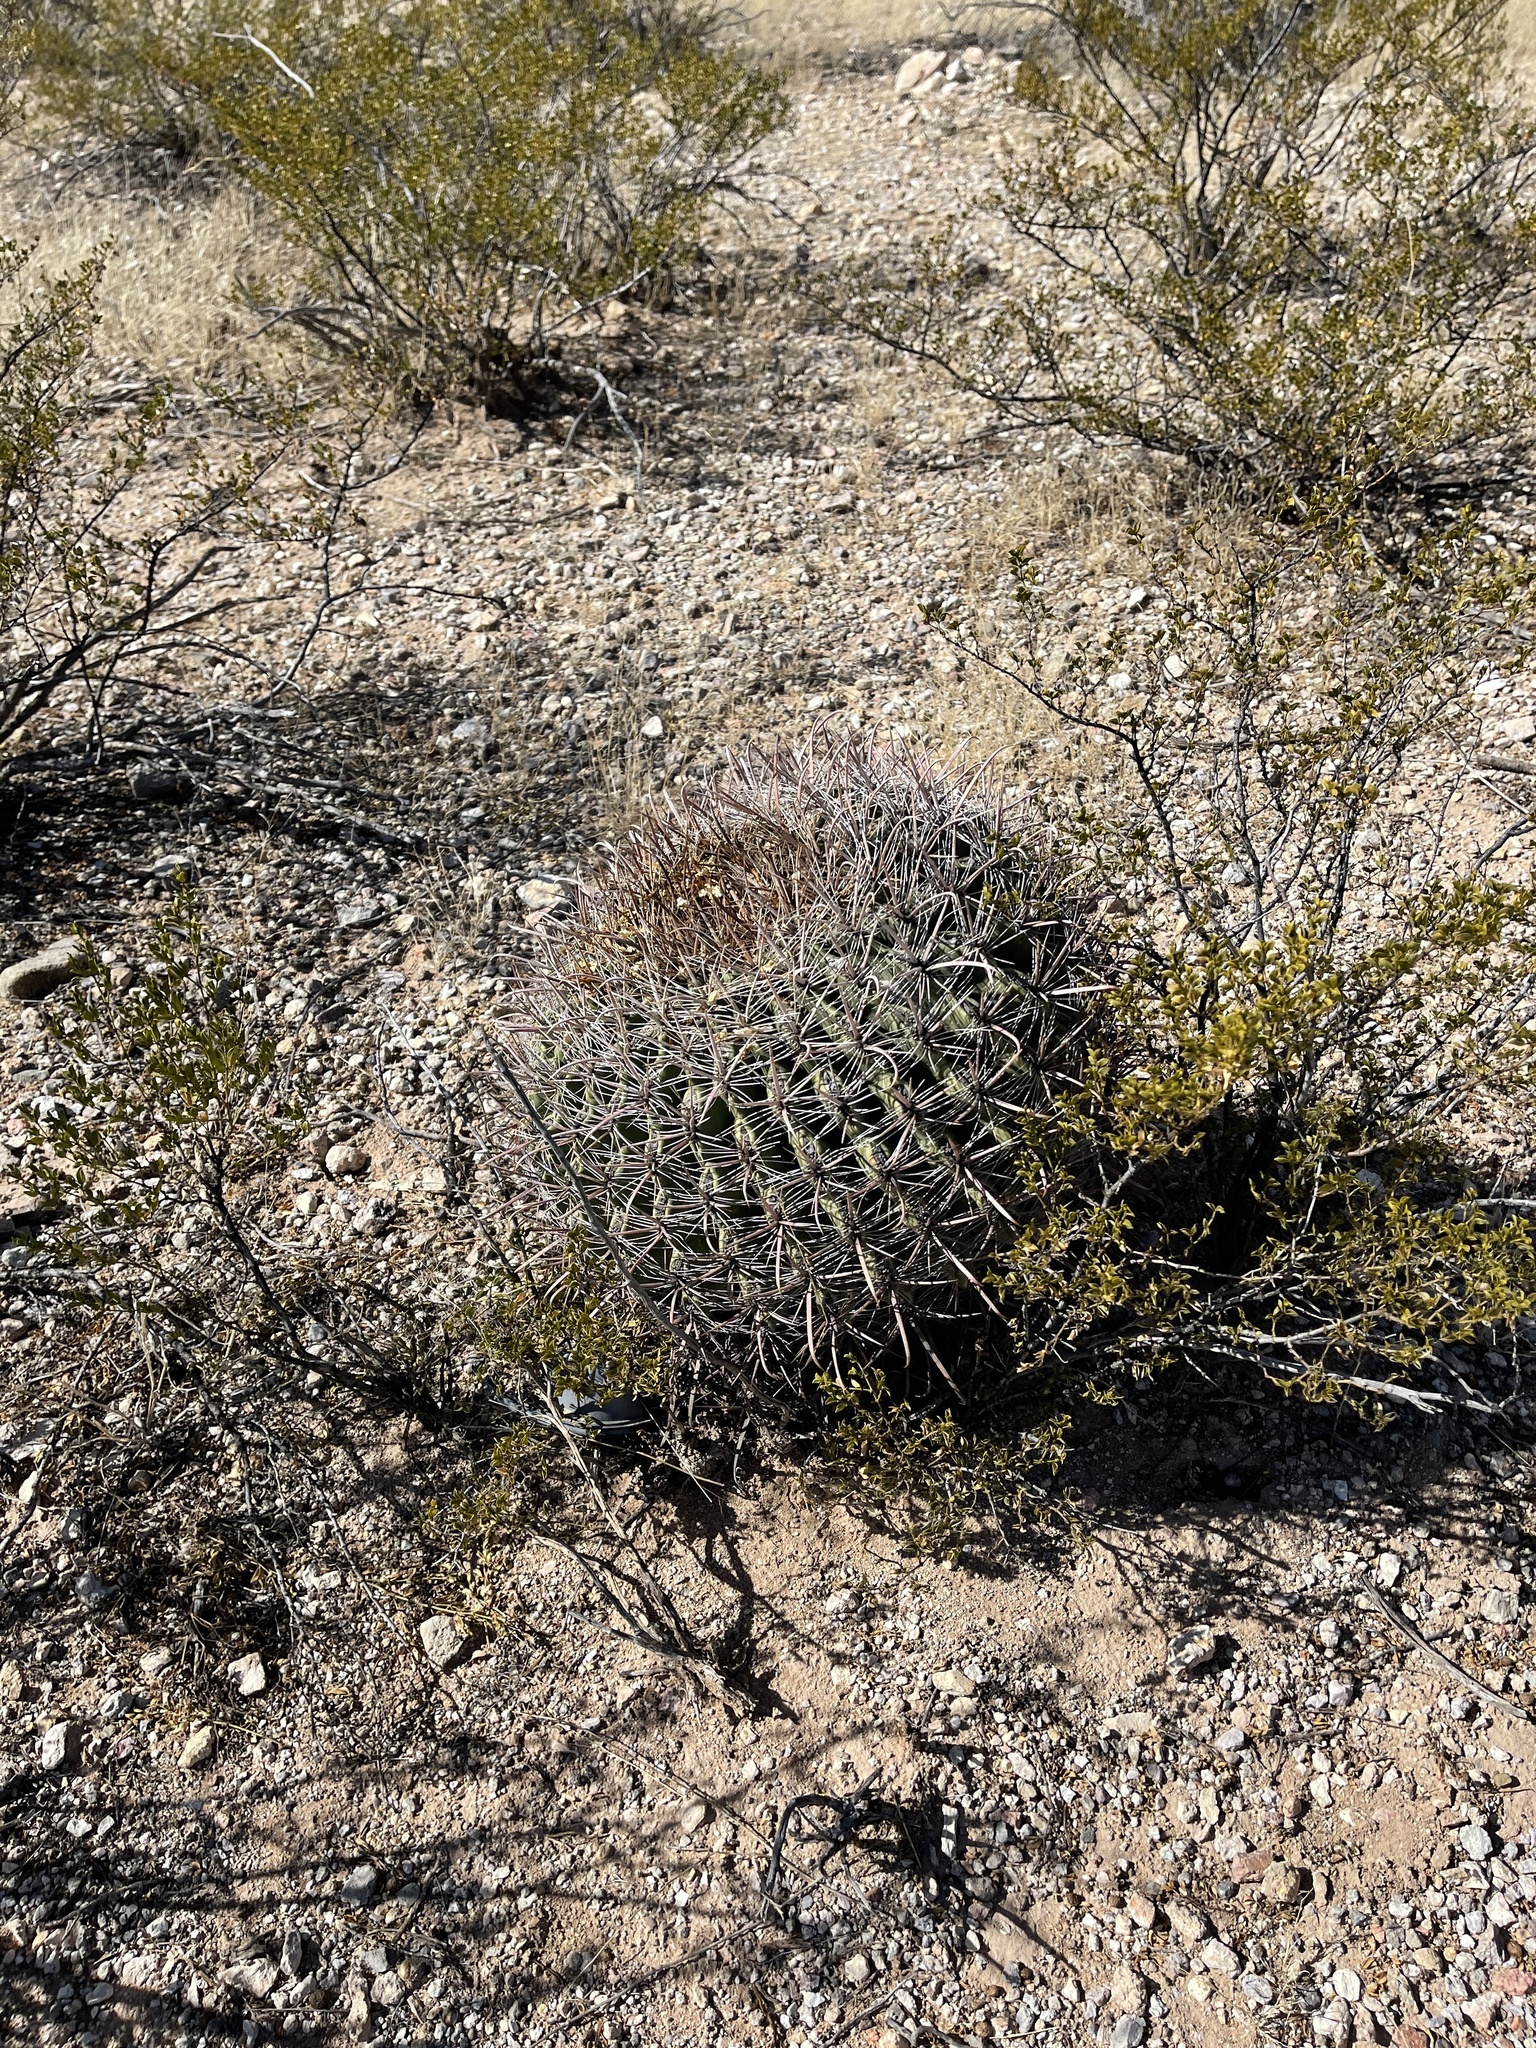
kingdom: Plantae
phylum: Tracheophyta
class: Magnoliopsida
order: Caryophyllales
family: Cactaceae
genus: Ferocactus
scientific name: Ferocactus wislizeni
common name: Candy barrel cactus
